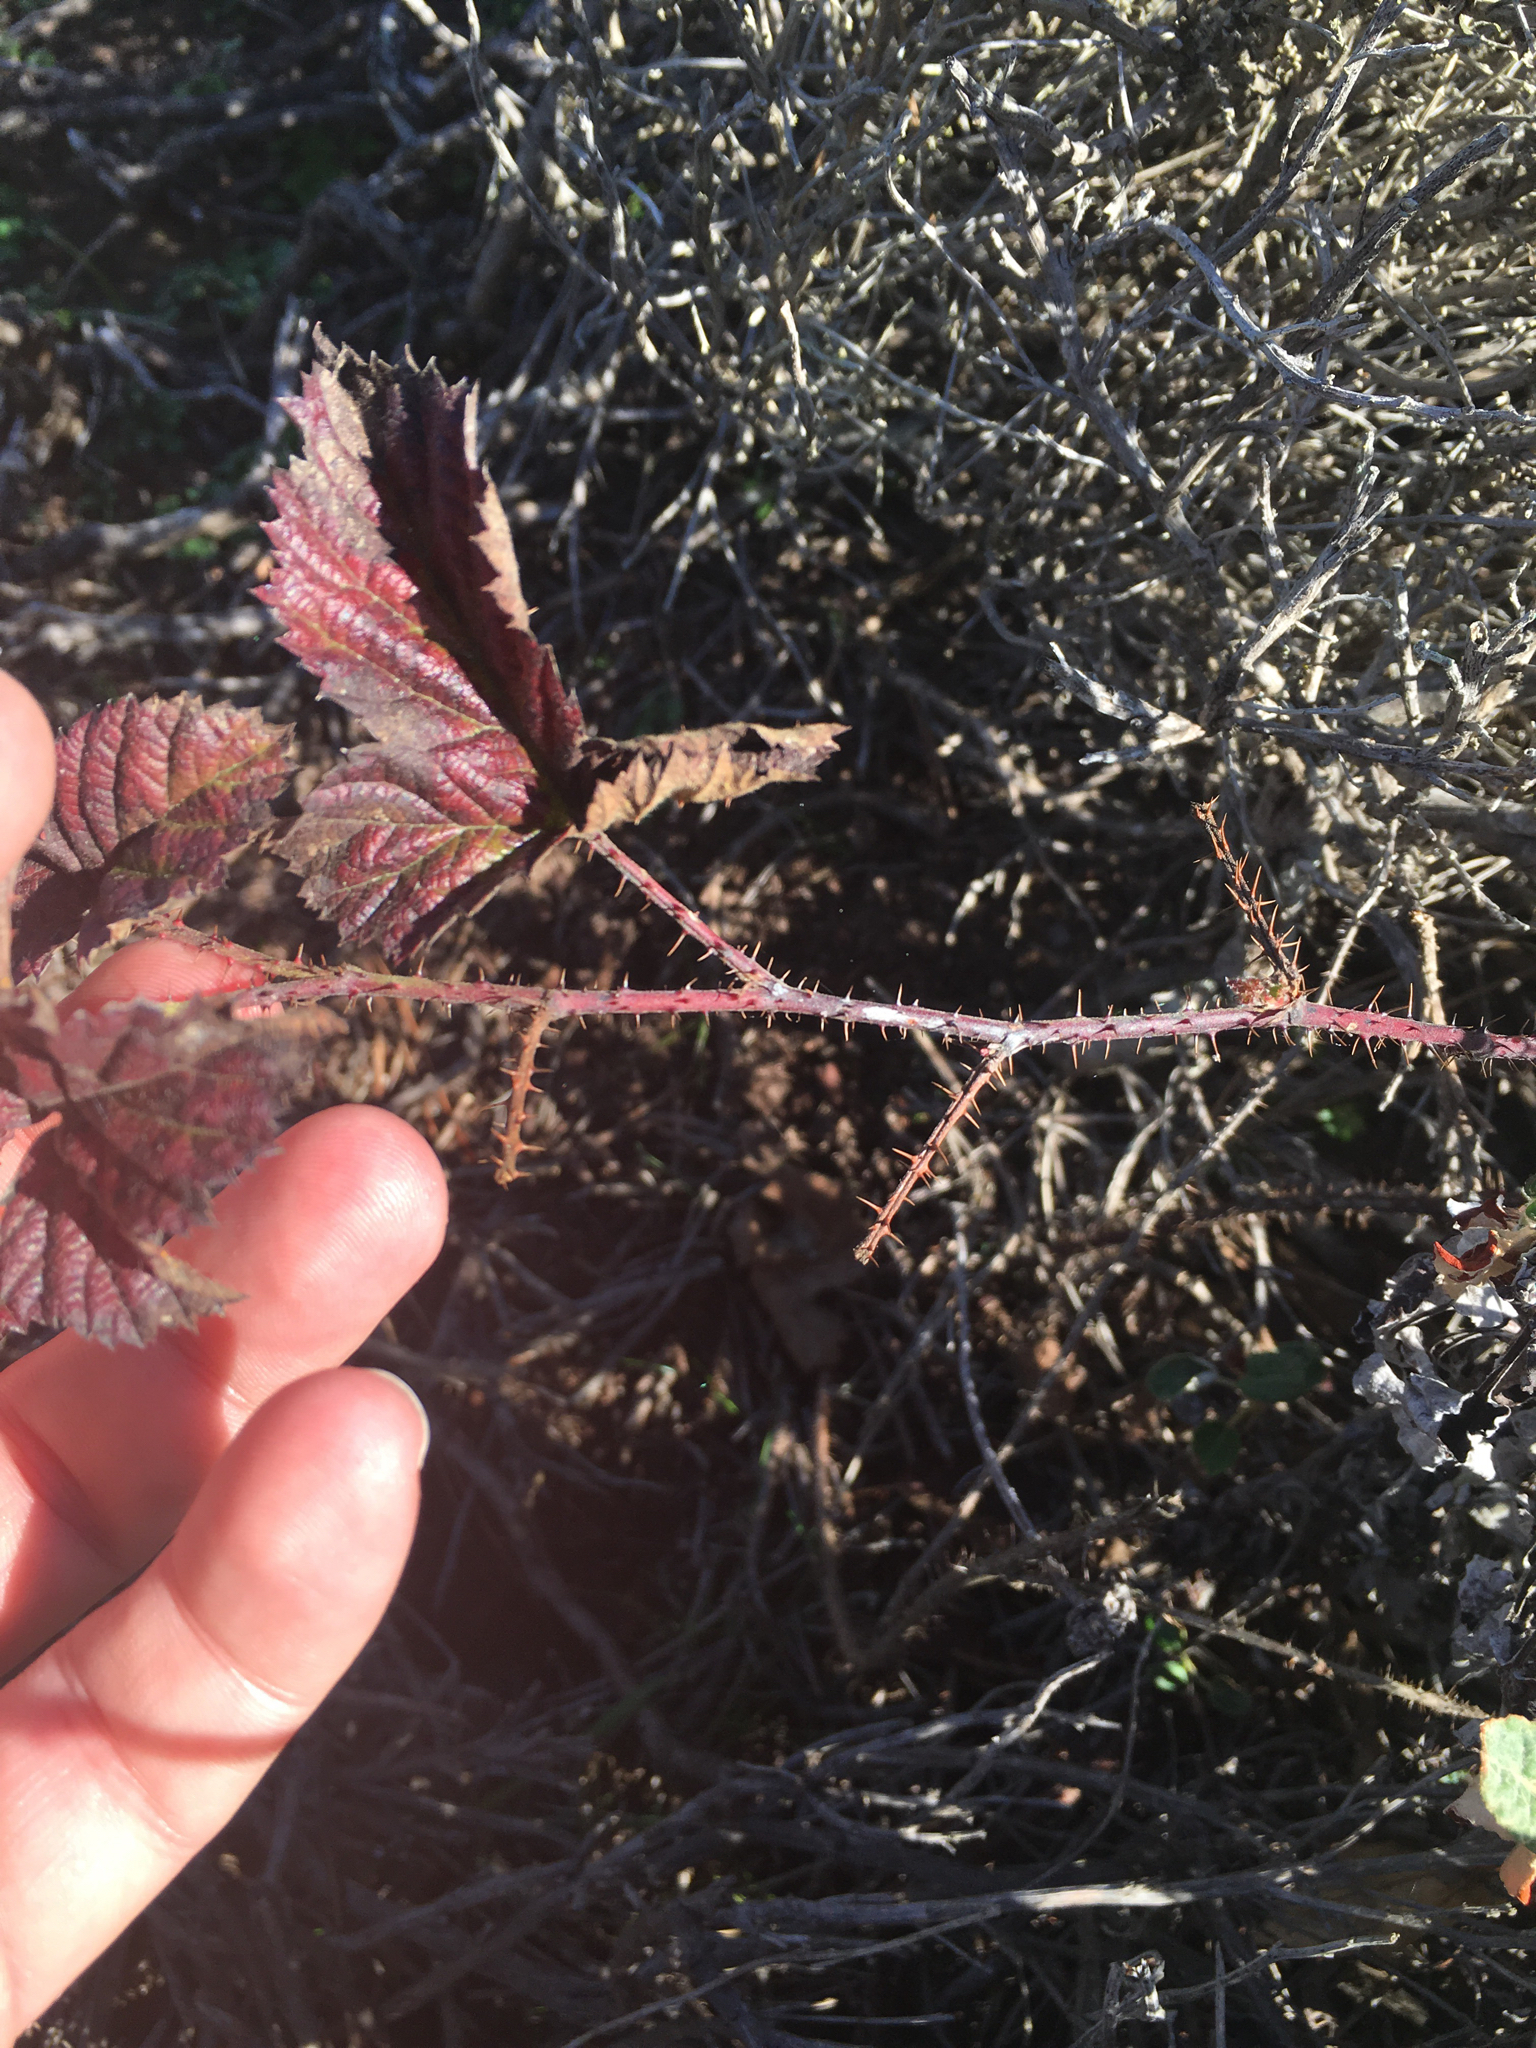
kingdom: Plantae
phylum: Tracheophyta
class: Magnoliopsida
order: Rosales
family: Rosaceae
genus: Rubus
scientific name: Rubus ursinus
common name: Pacific blackberry
